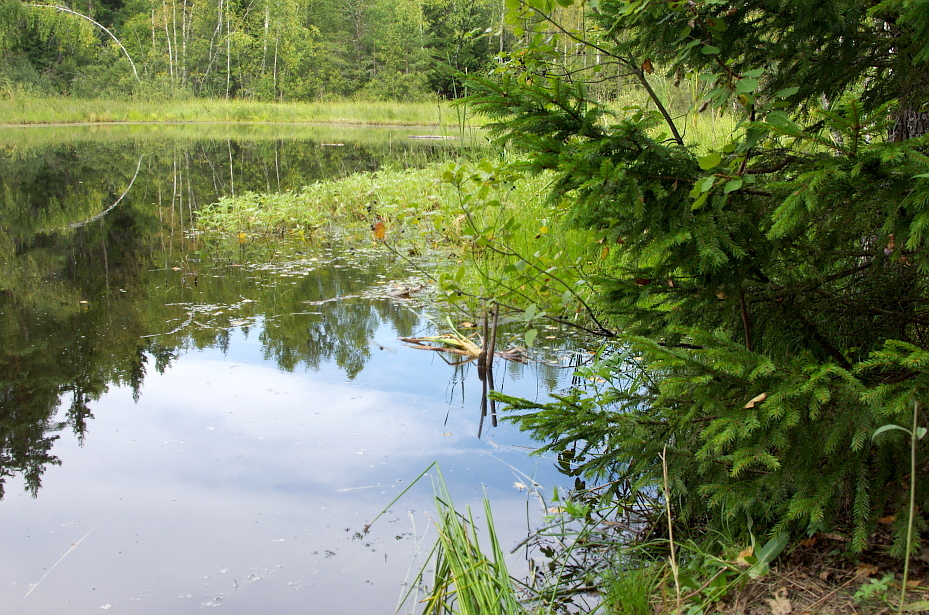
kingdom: Plantae
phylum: Tracheophyta
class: Pinopsida
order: Pinales
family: Pinaceae
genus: Picea
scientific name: Picea abies
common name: Norway spruce
